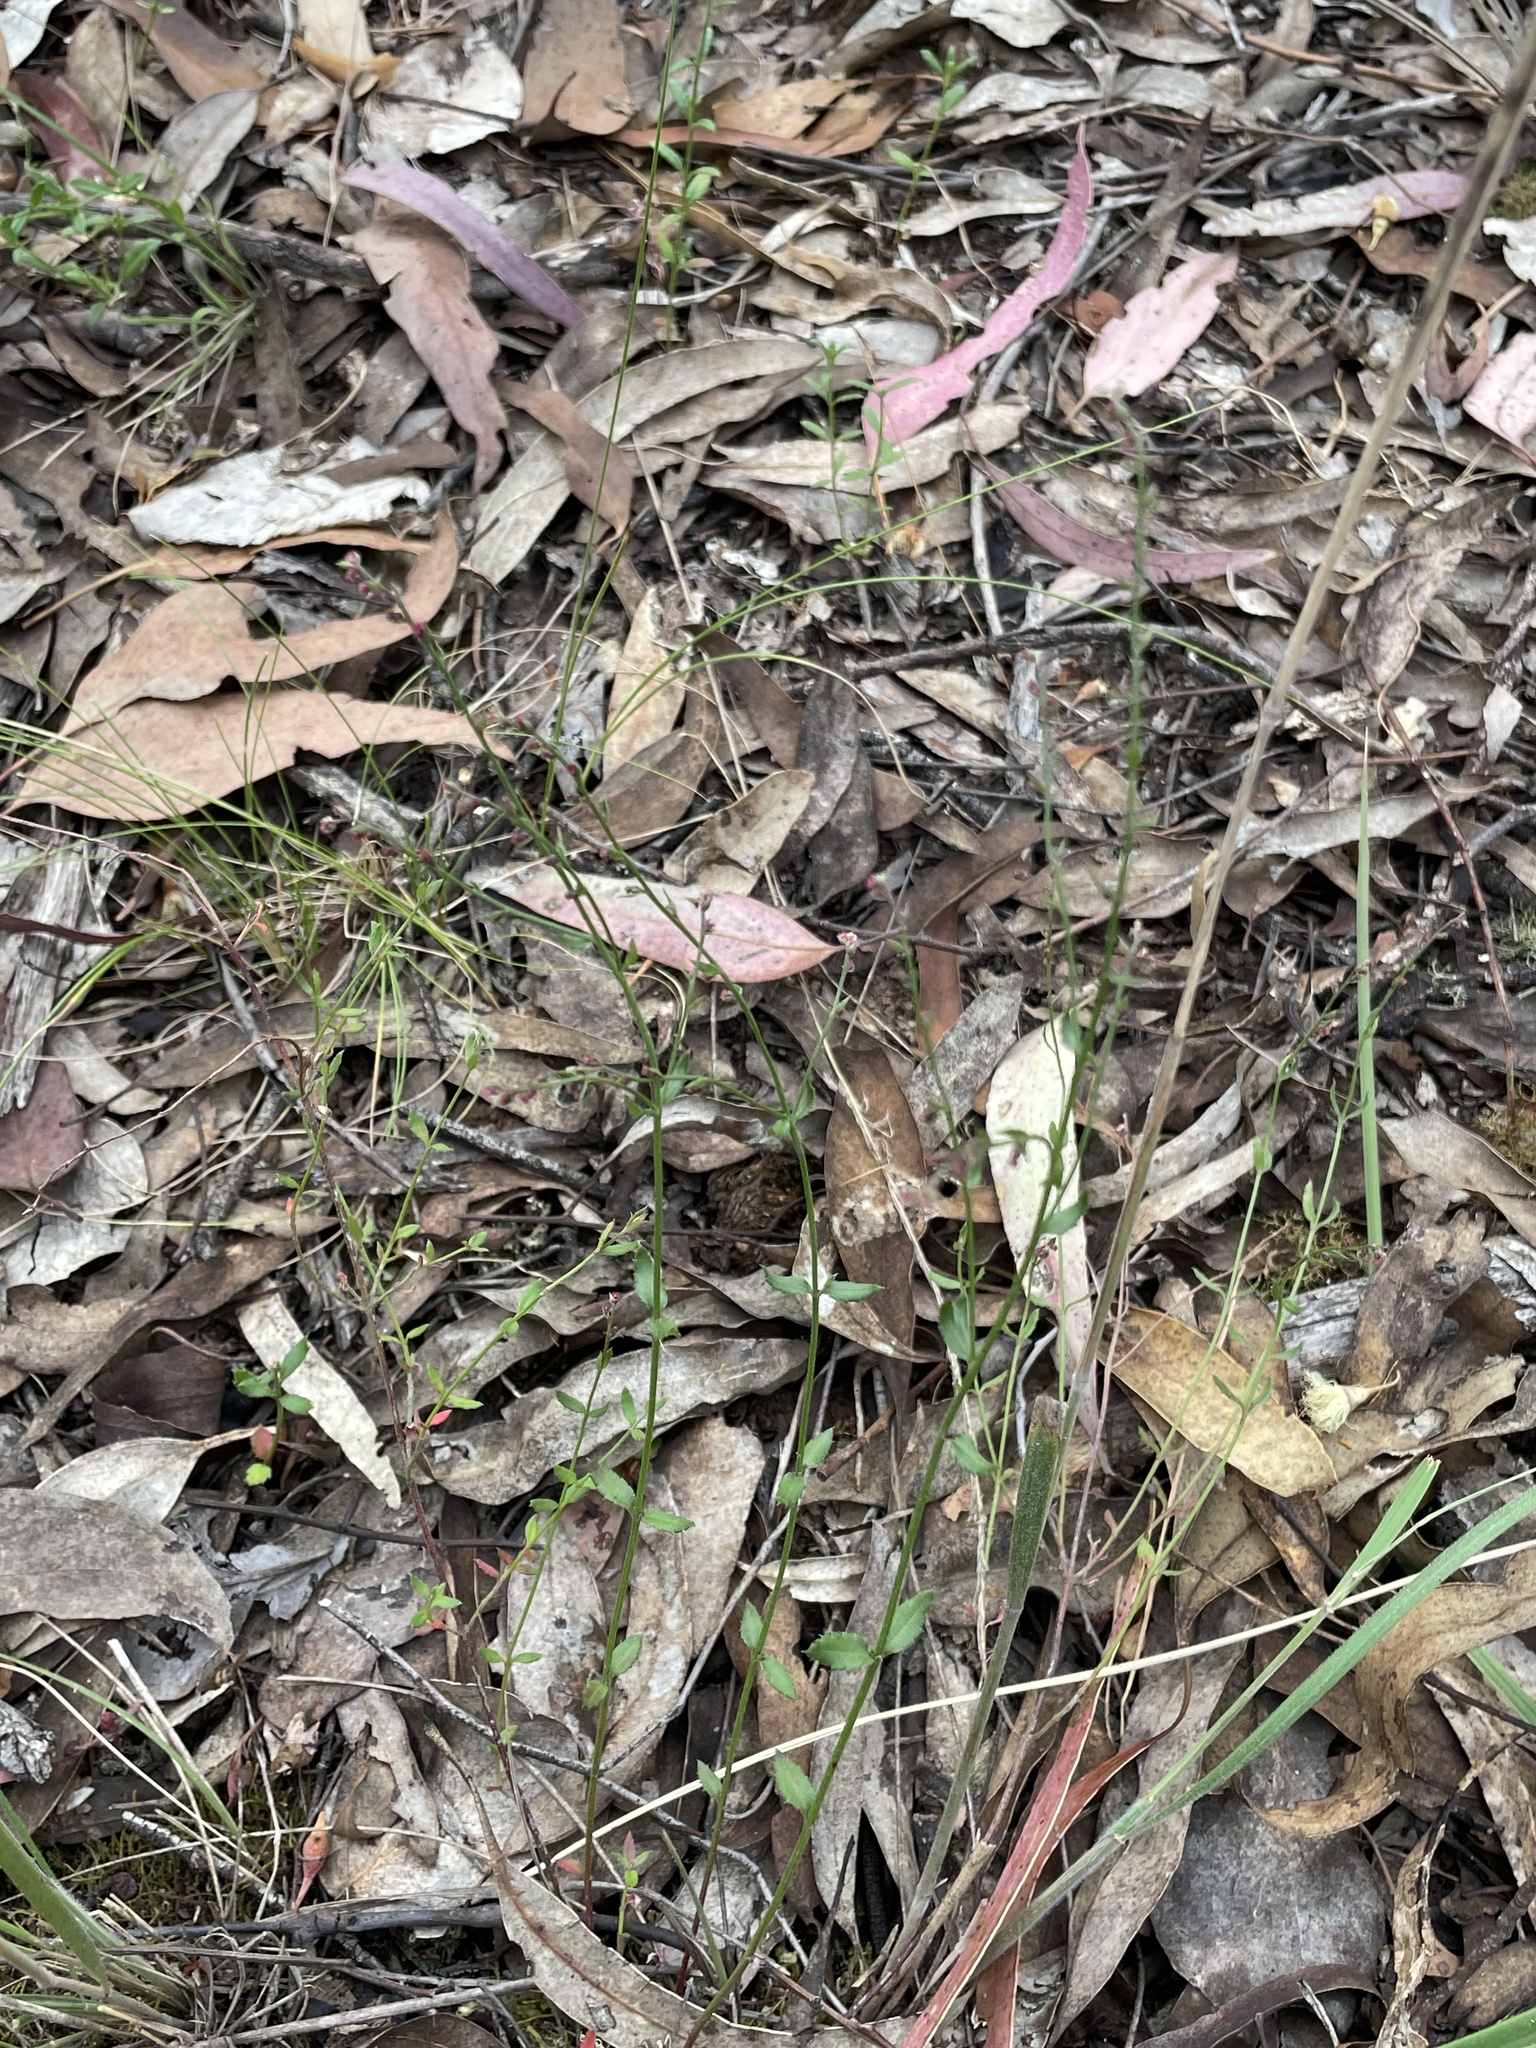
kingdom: Plantae
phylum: Tracheophyta
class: Magnoliopsida
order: Saxifragales
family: Haloragaceae
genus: Gonocarpus
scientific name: Gonocarpus tetragynus
